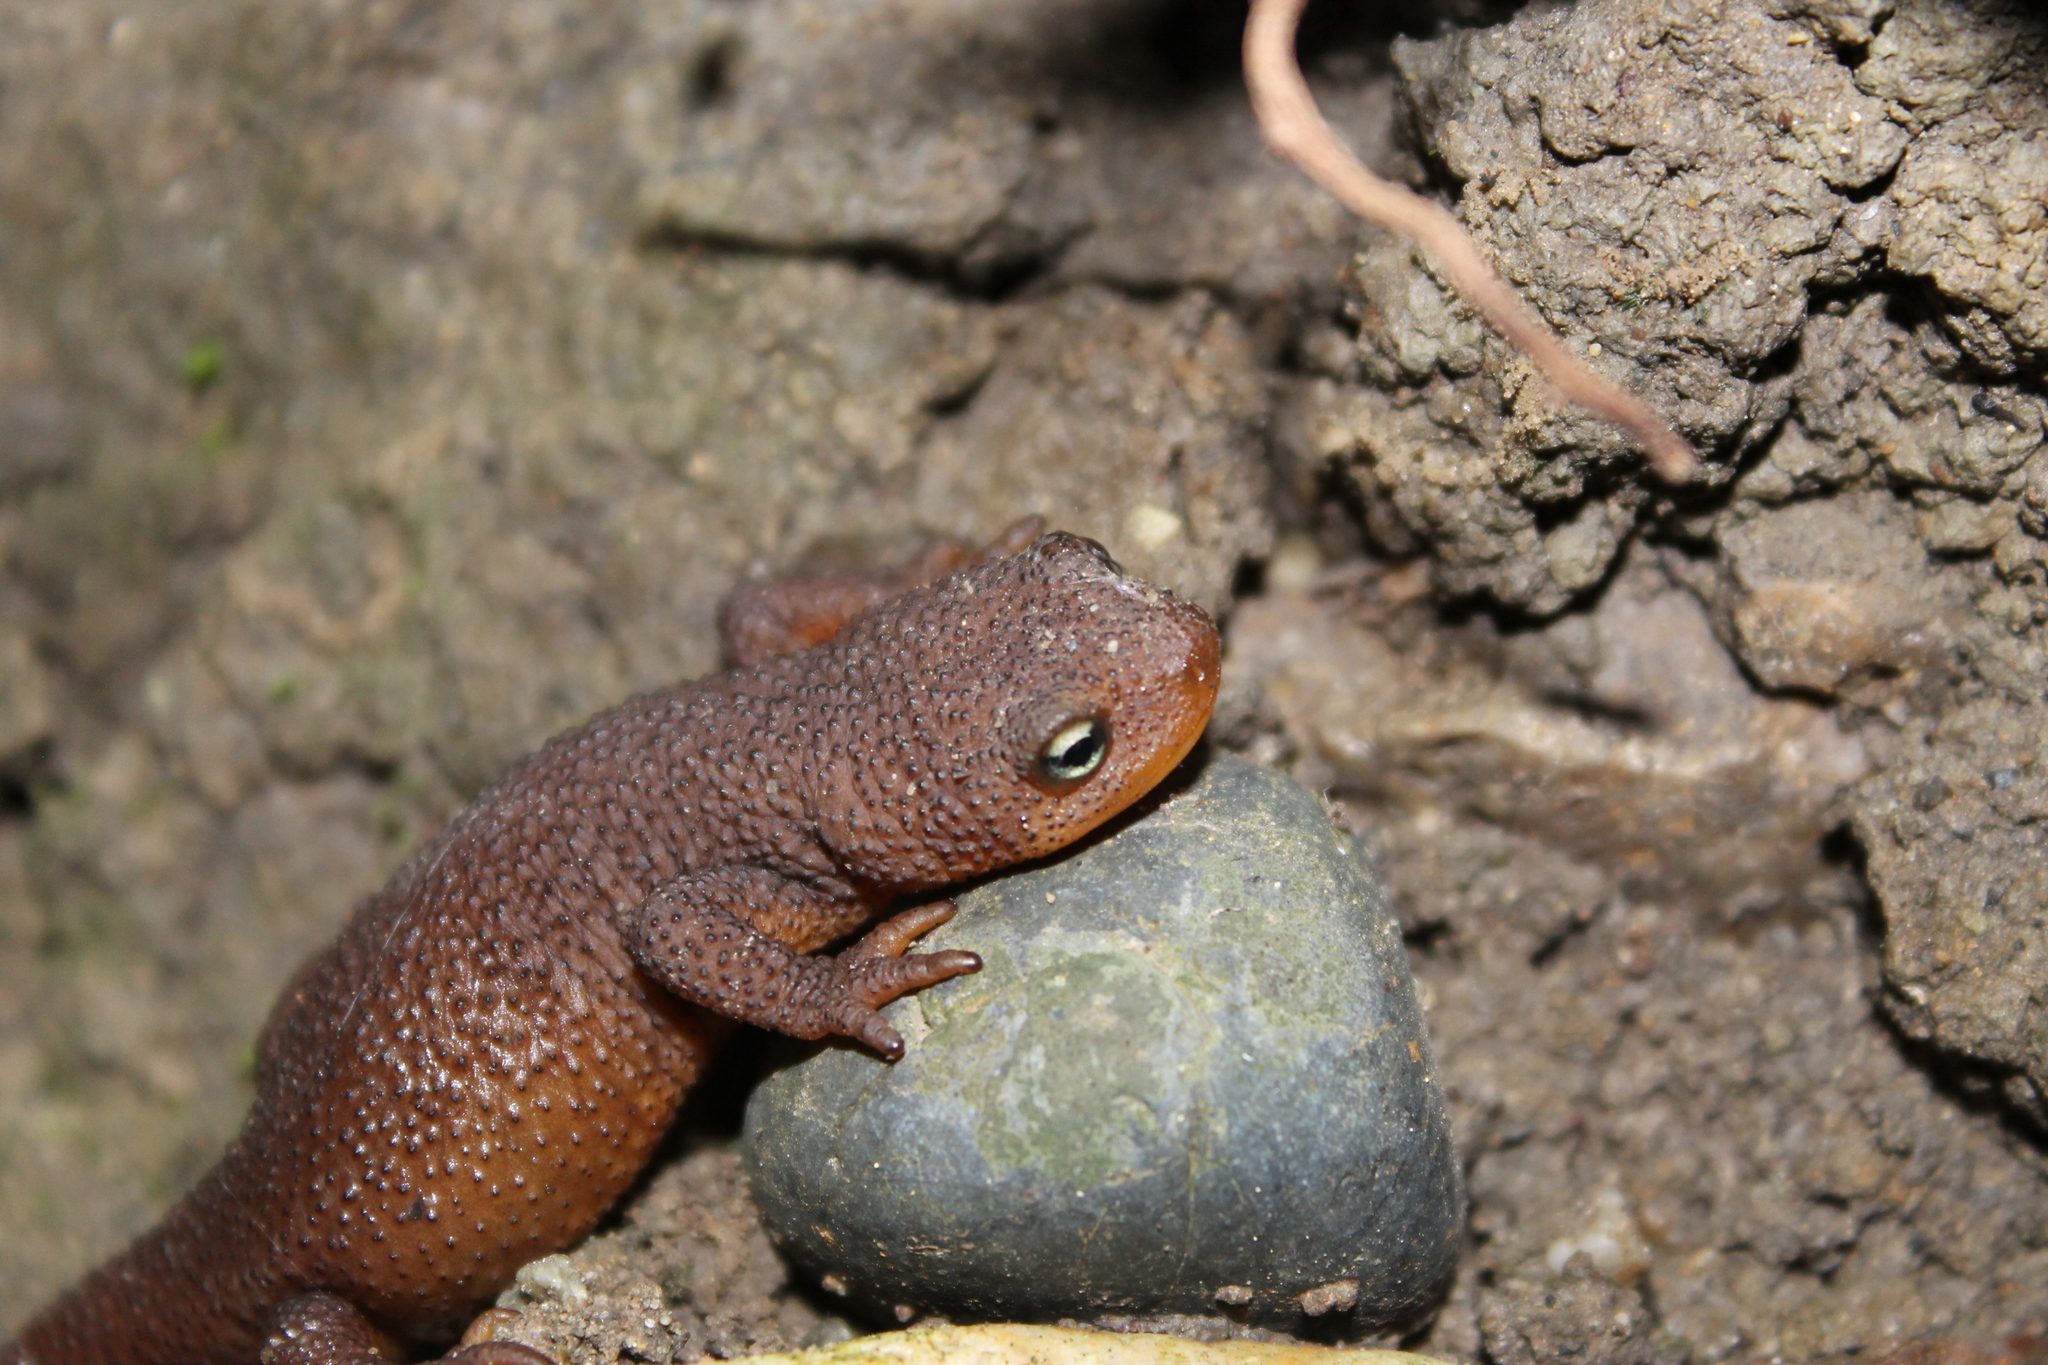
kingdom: Animalia
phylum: Chordata
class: Amphibia
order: Caudata
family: Salamandridae
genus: Taricha
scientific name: Taricha granulosa
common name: Roughskin newt
